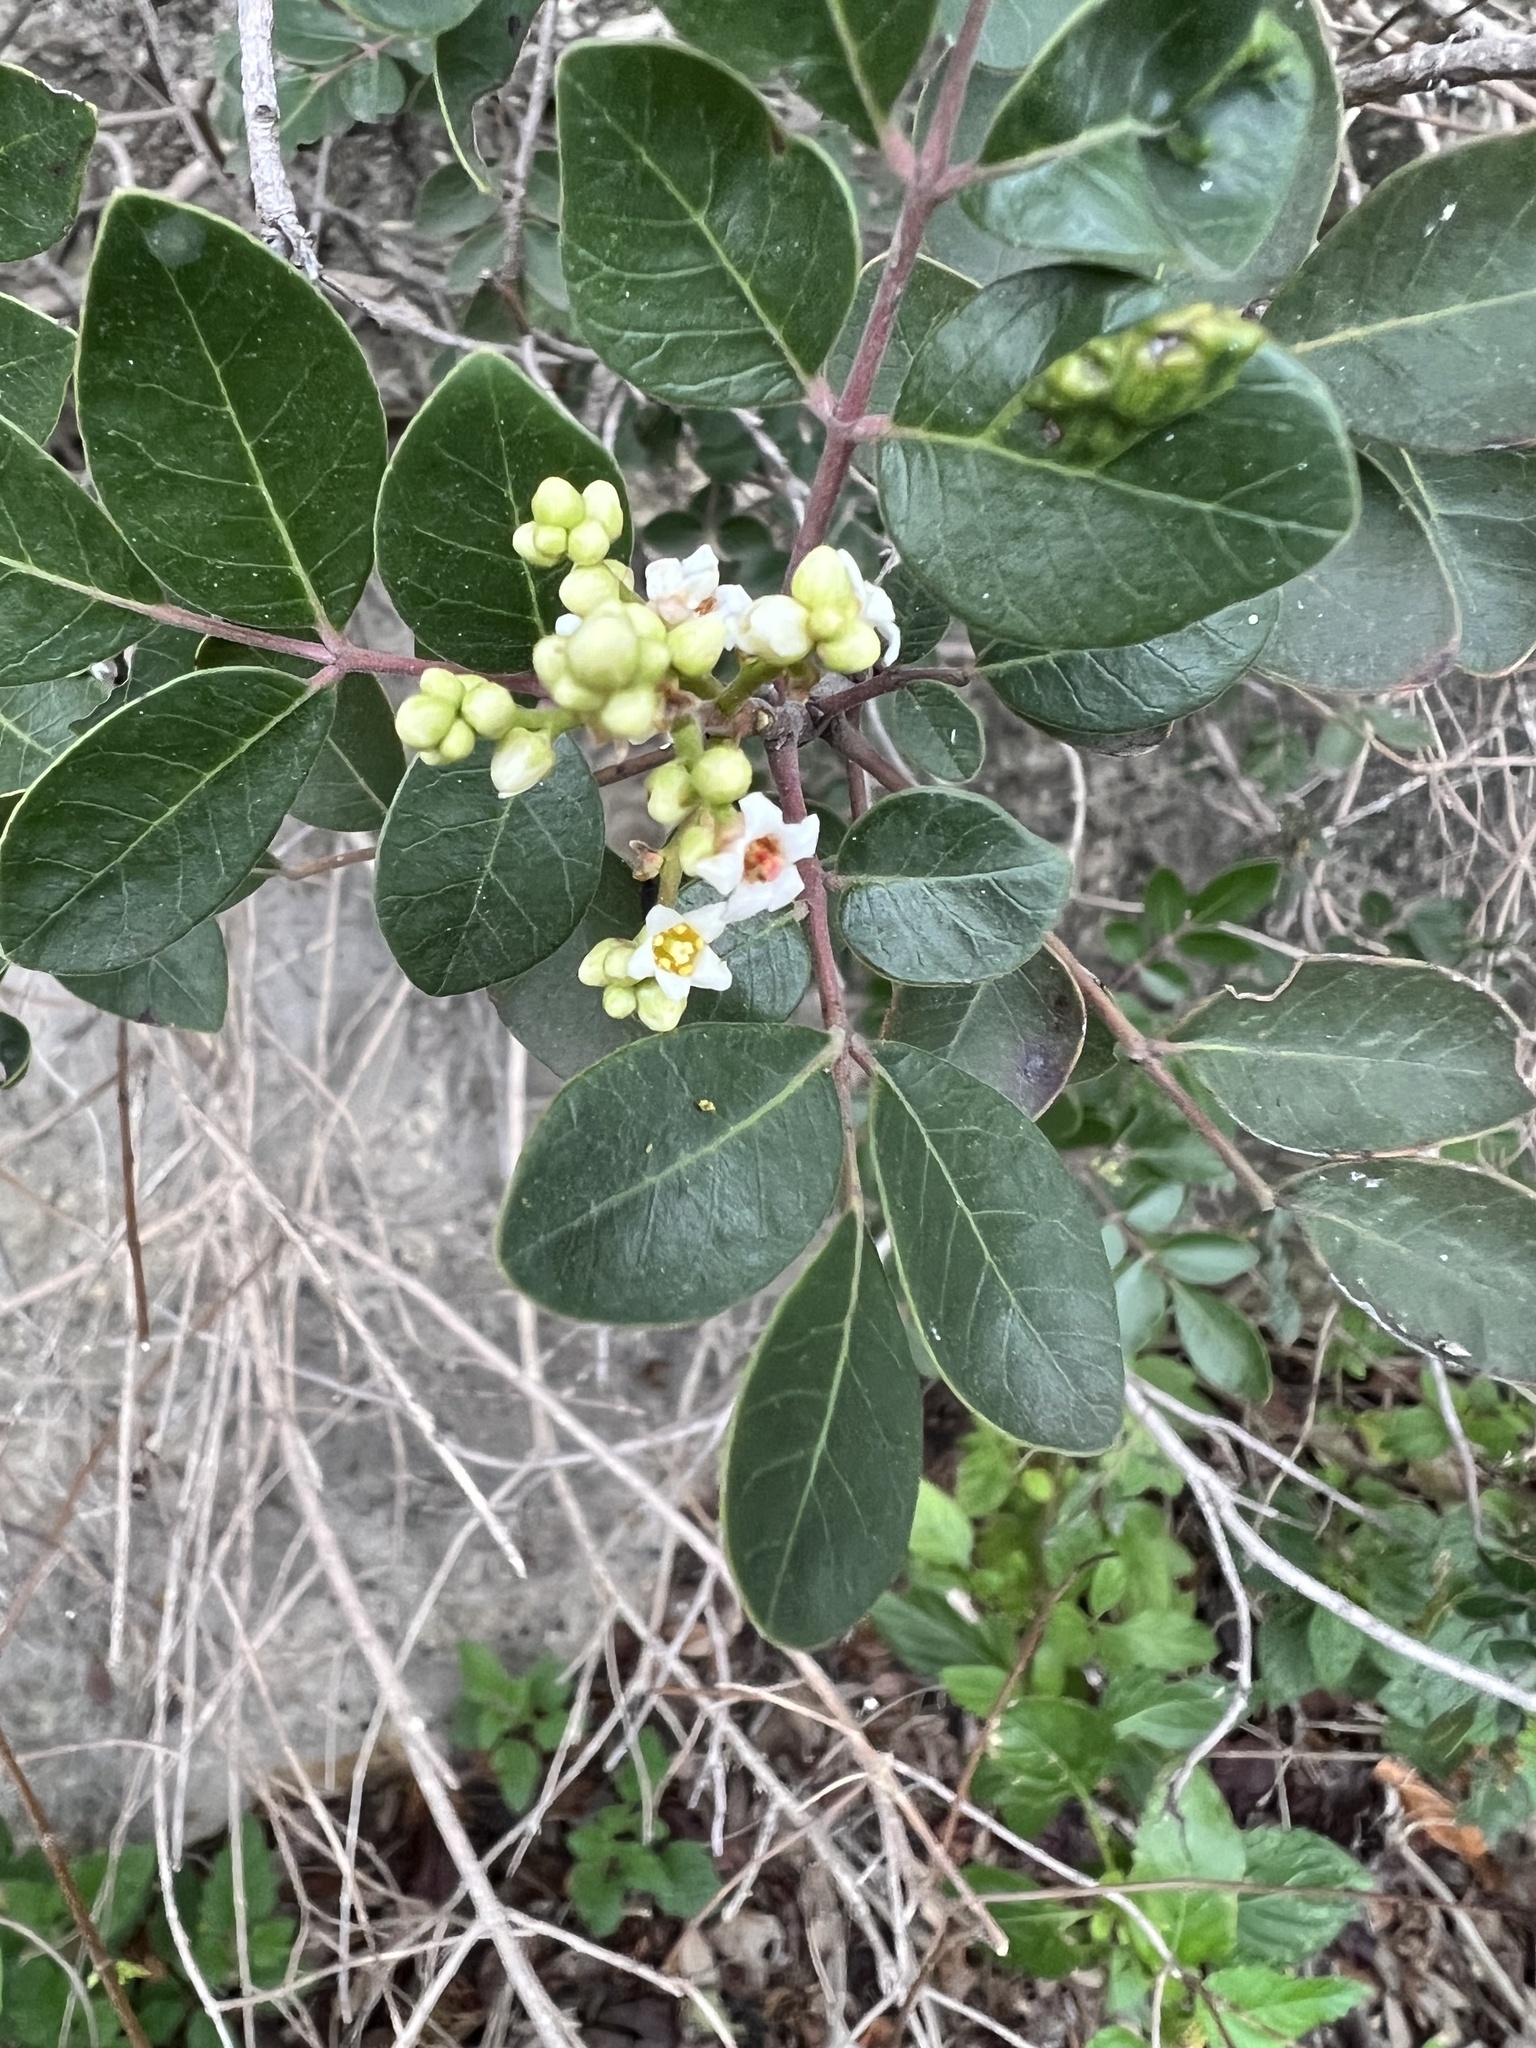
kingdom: Plantae
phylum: Tracheophyta
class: Magnoliopsida
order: Sapindales
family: Anacardiaceae
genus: Rhus
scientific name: Rhus virens
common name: Evergreen sumac
